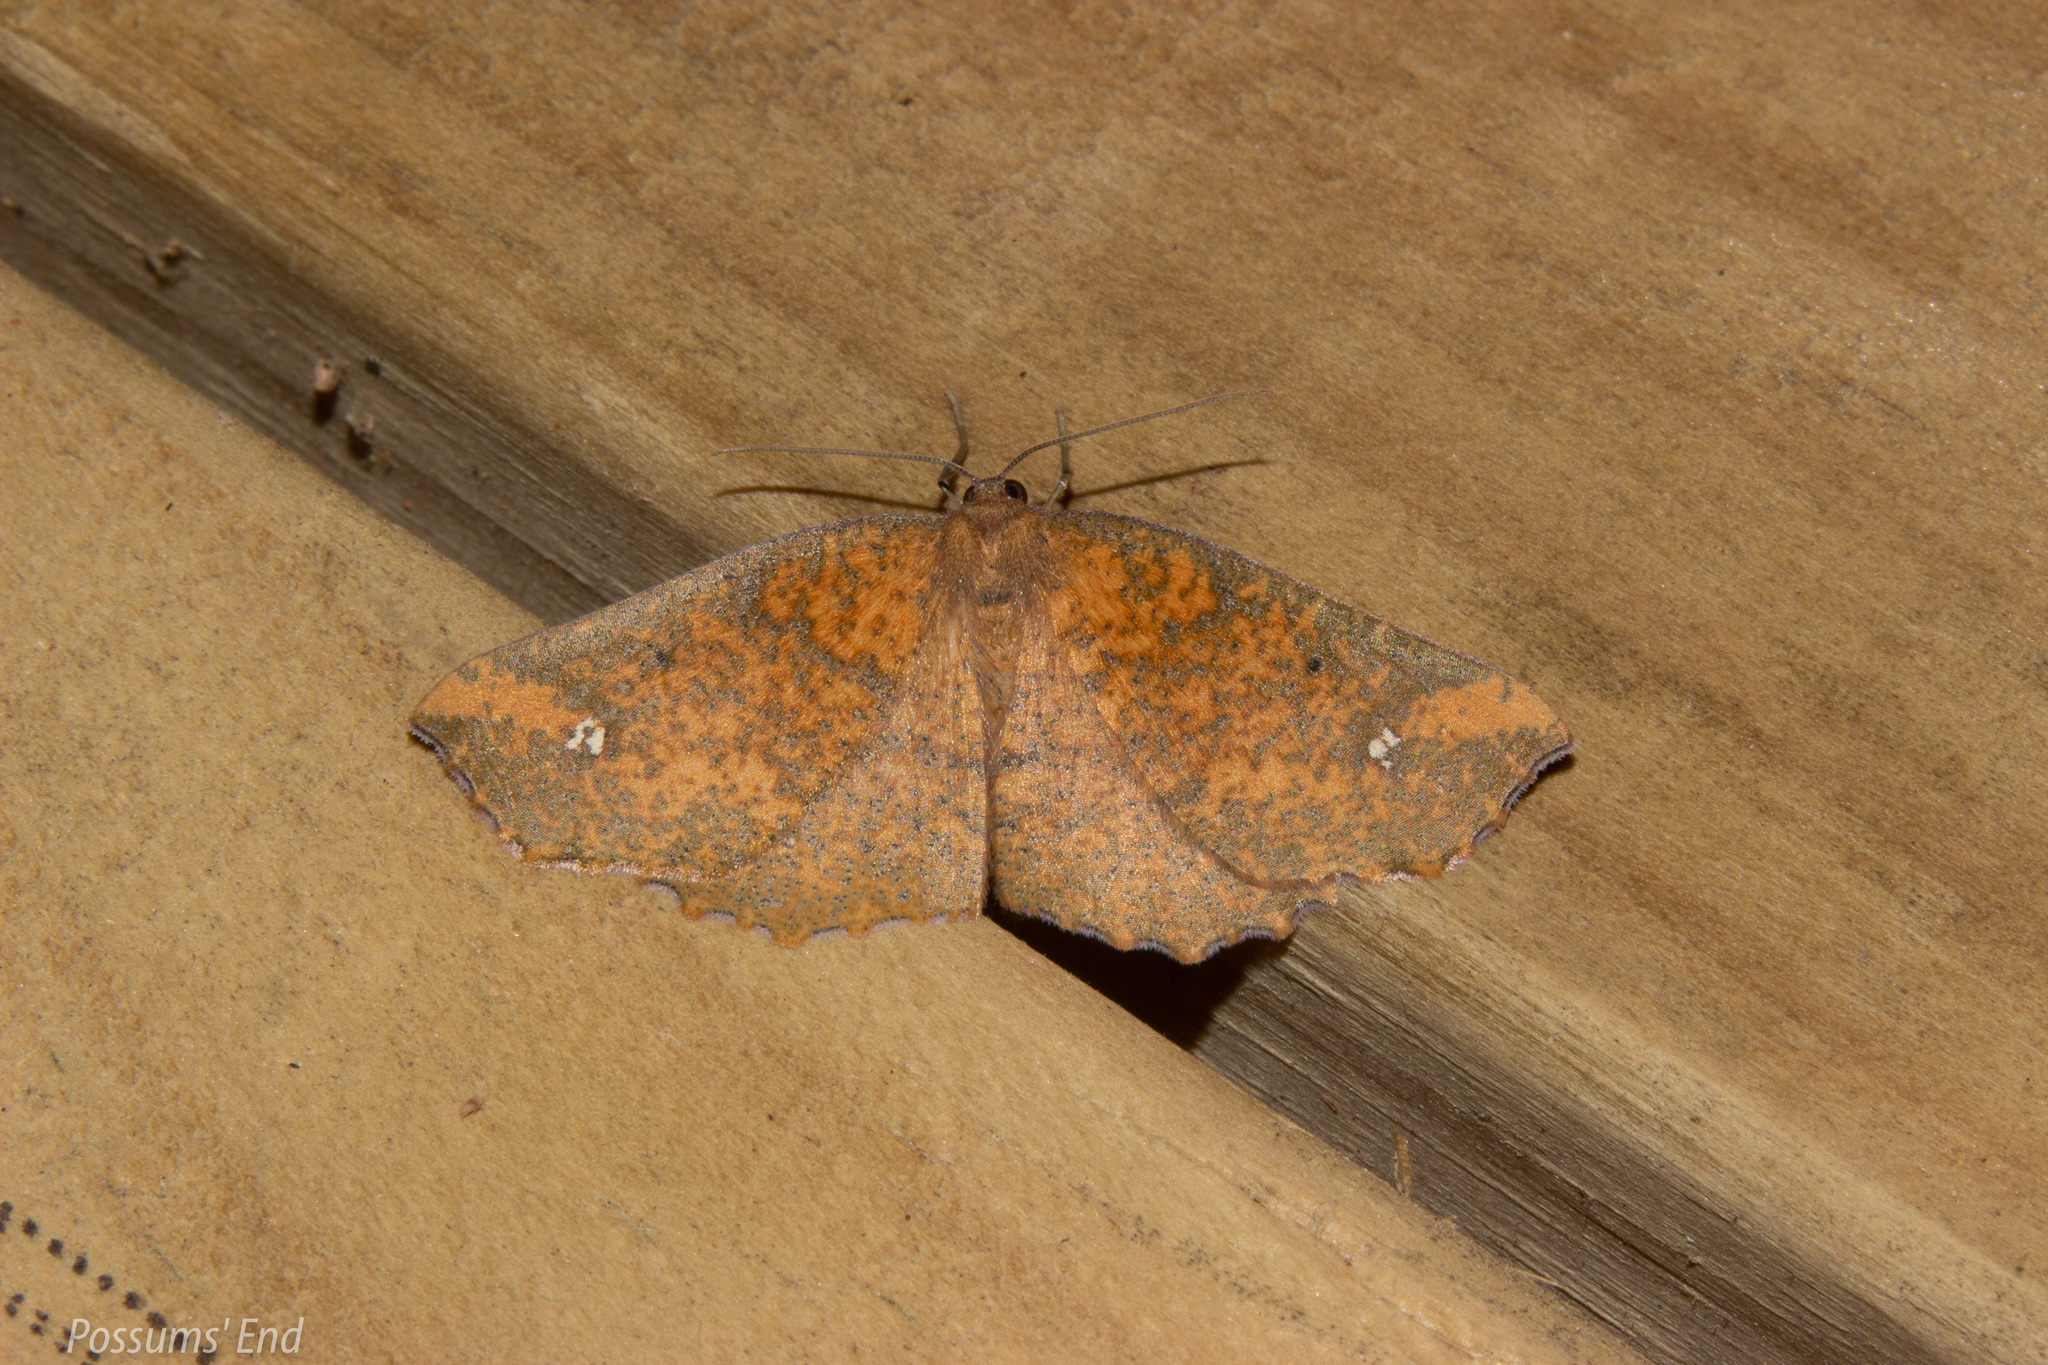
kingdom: Animalia
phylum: Arthropoda
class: Insecta
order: Lepidoptera
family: Geometridae
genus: Xyridacma
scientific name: Xyridacma ustaria
